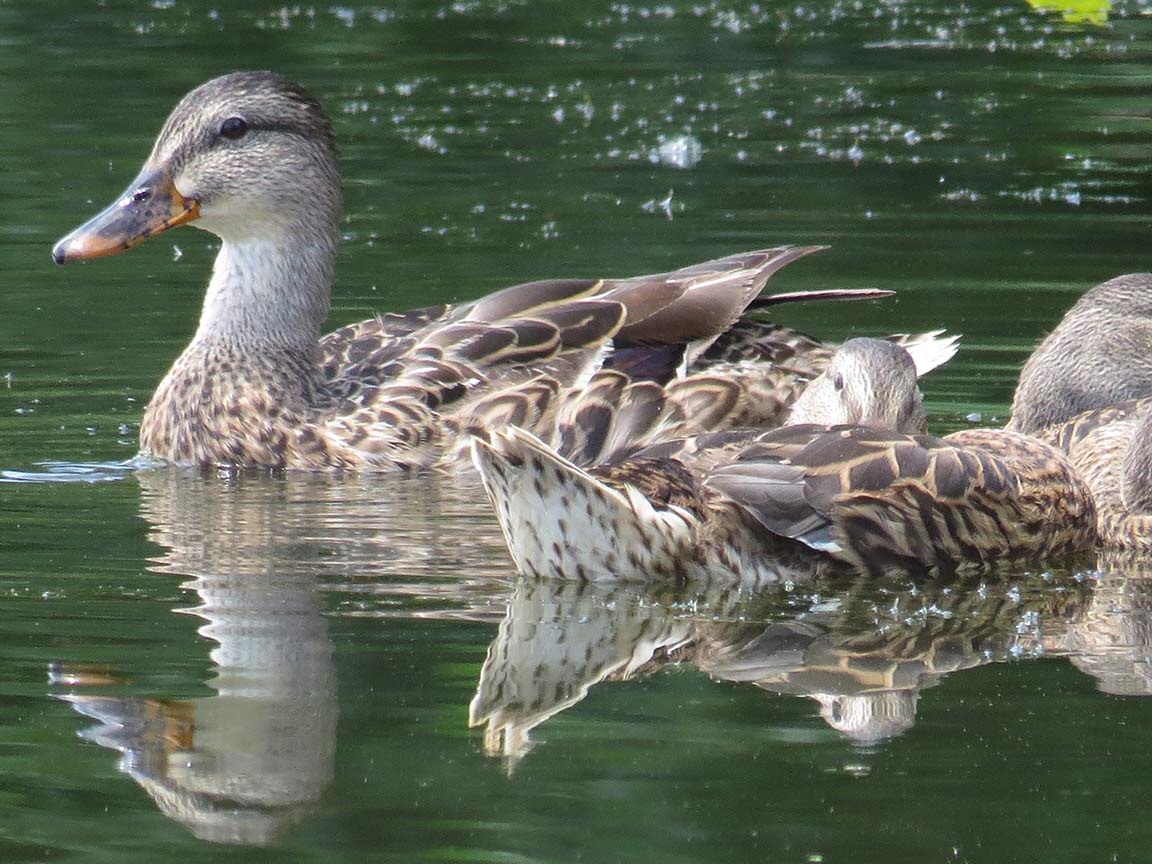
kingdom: Animalia
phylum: Chordata
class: Aves
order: Anseriformes
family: Anatidae
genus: Anas
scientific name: Anas platyrhynchos
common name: Mallard
